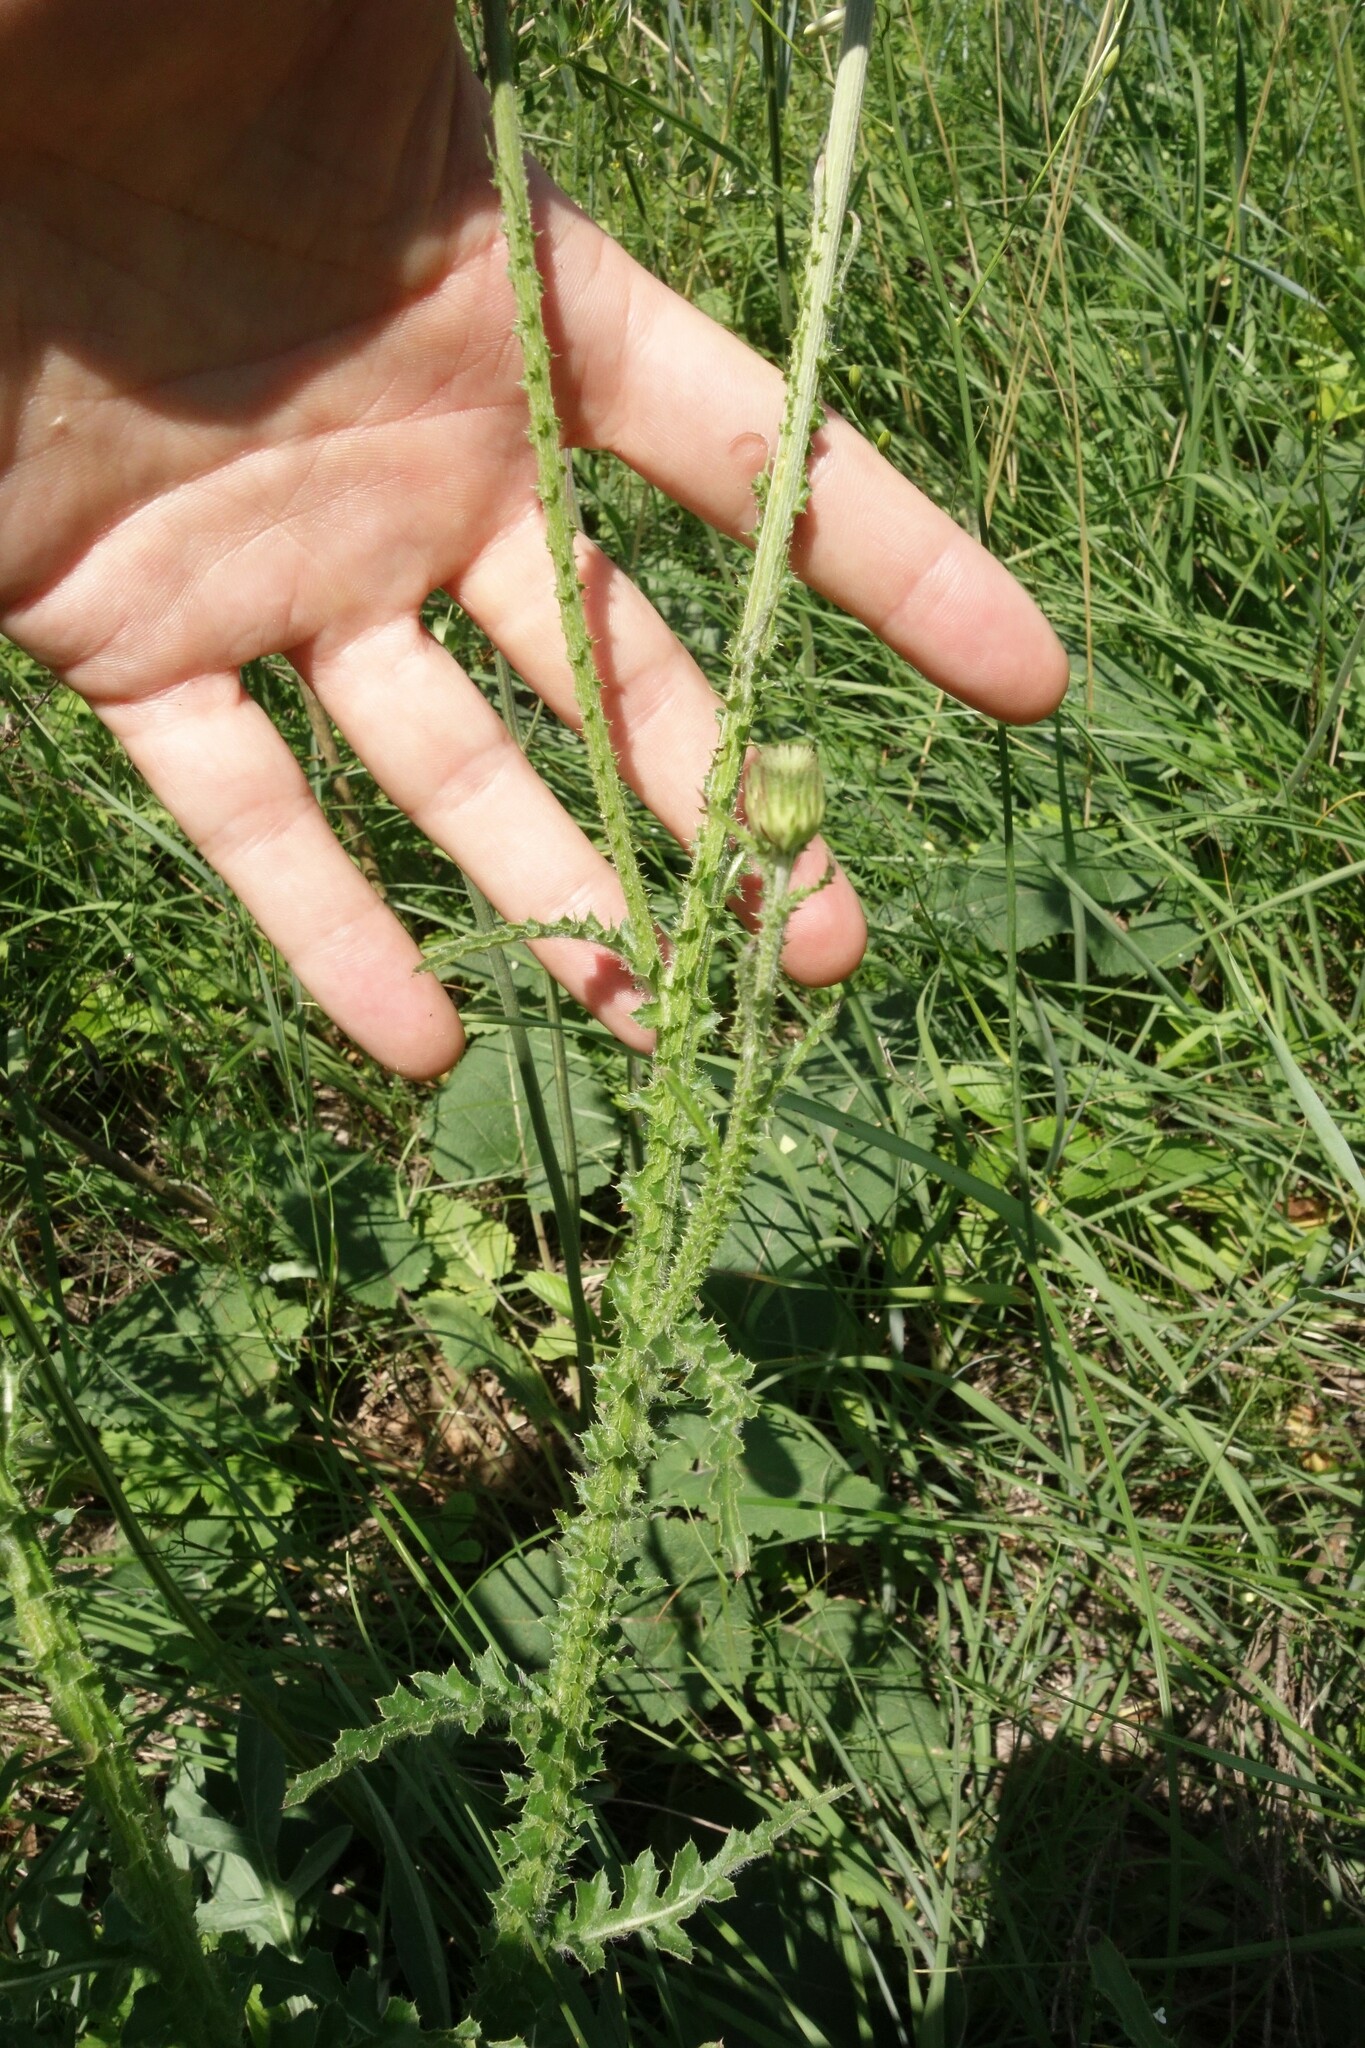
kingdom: Plantae
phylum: Tracheophyta
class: Magnoliopsida
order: Asterales
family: Asteraceae
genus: Carduus
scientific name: Carduus hamulosus
